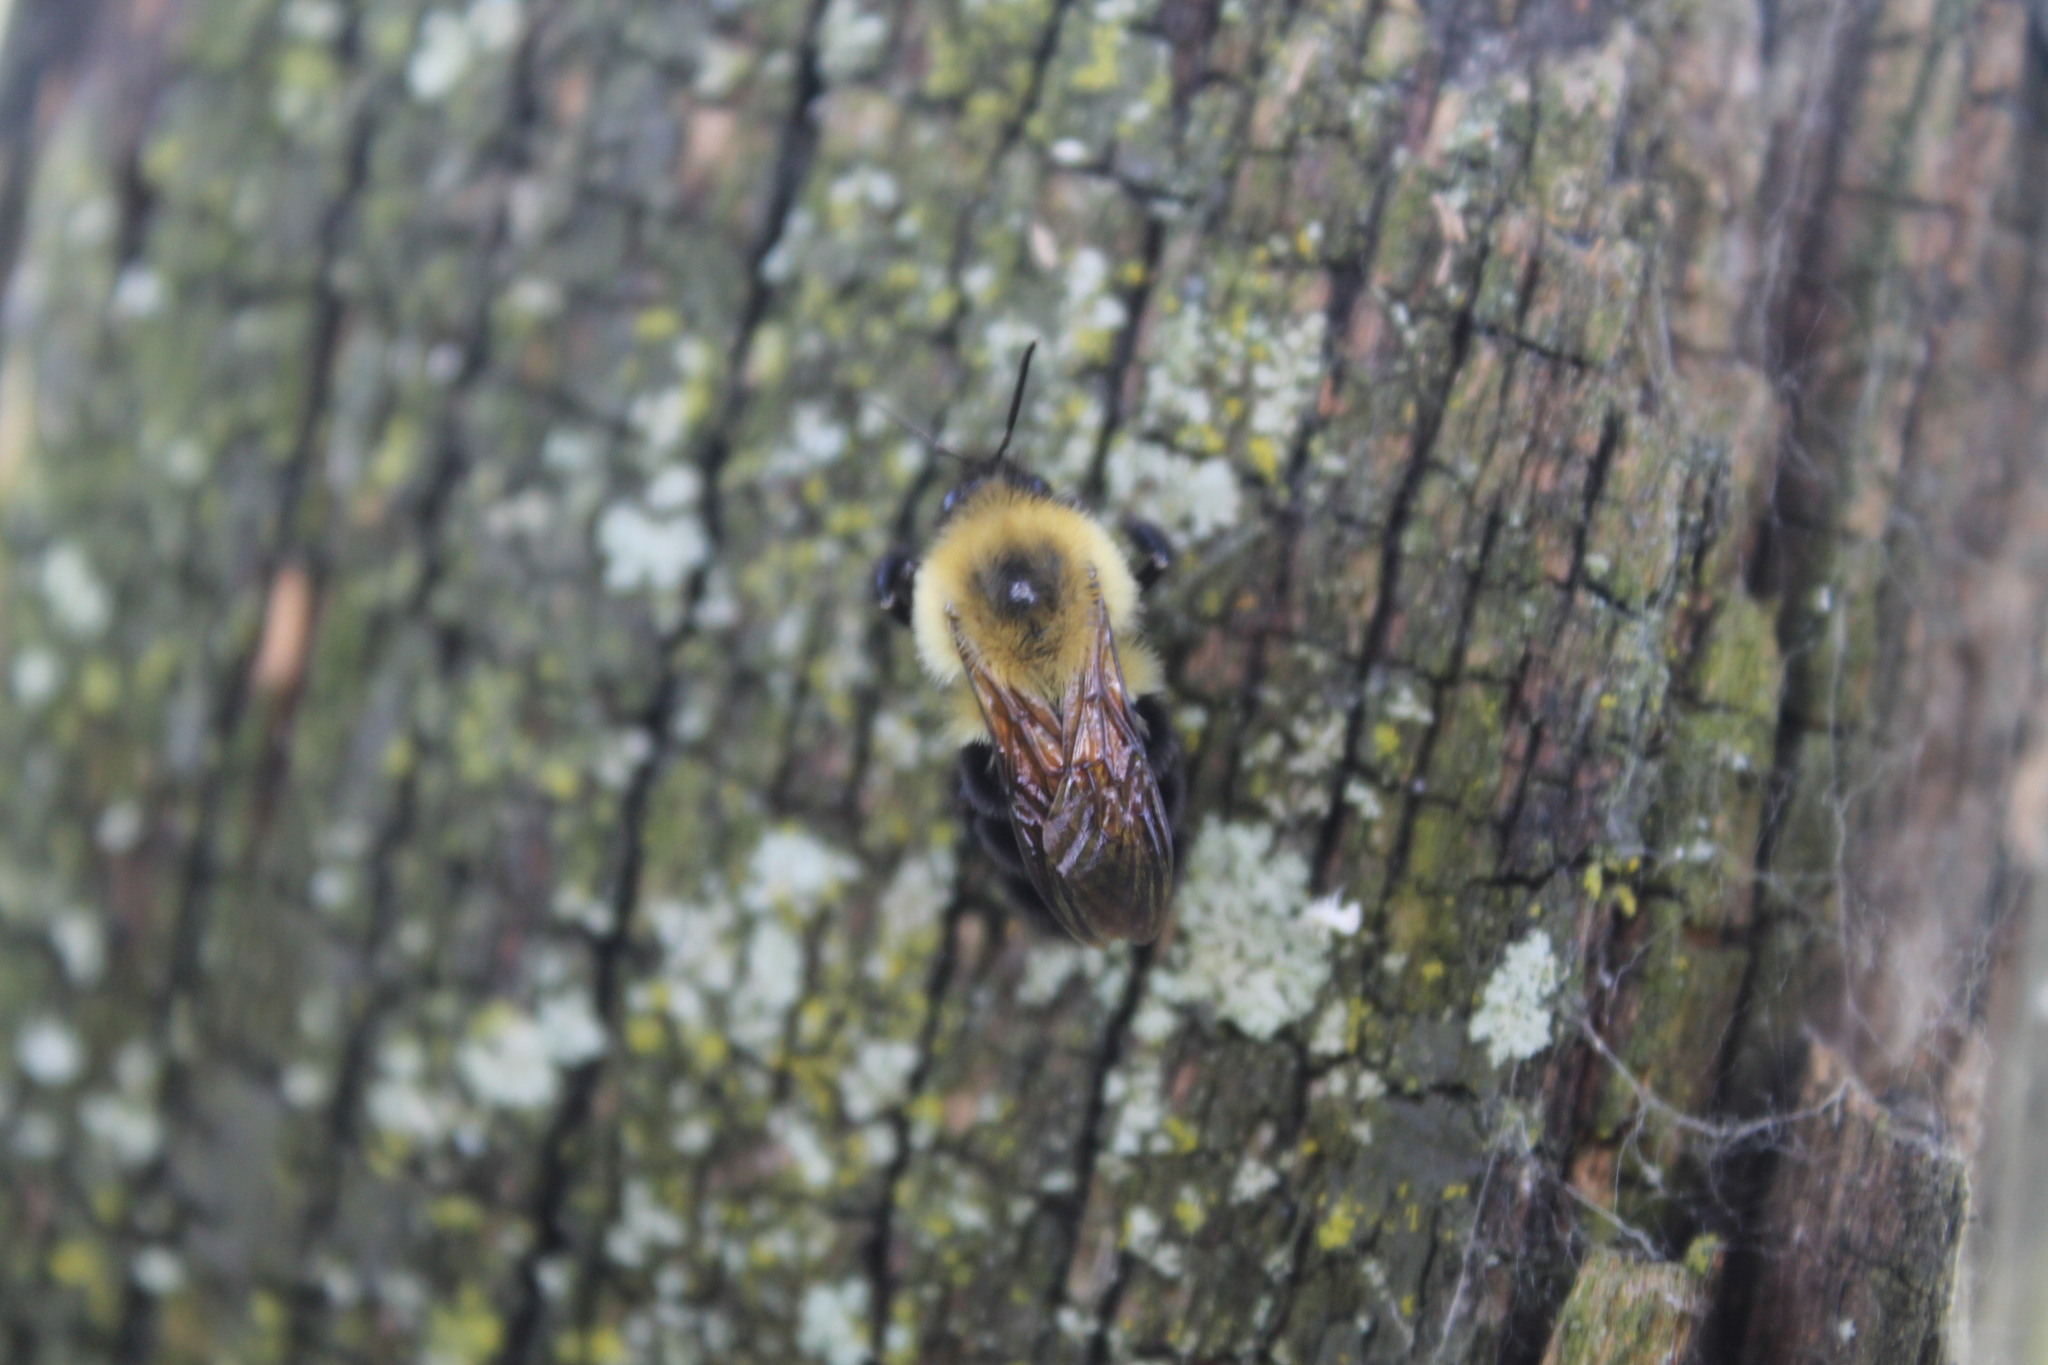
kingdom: Animalia
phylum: Arthropoda
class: Insecta
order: Hymenoptera
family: Apidae
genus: Bombus
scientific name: Bombus bimaculatus
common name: Two-spotted bumble bee
